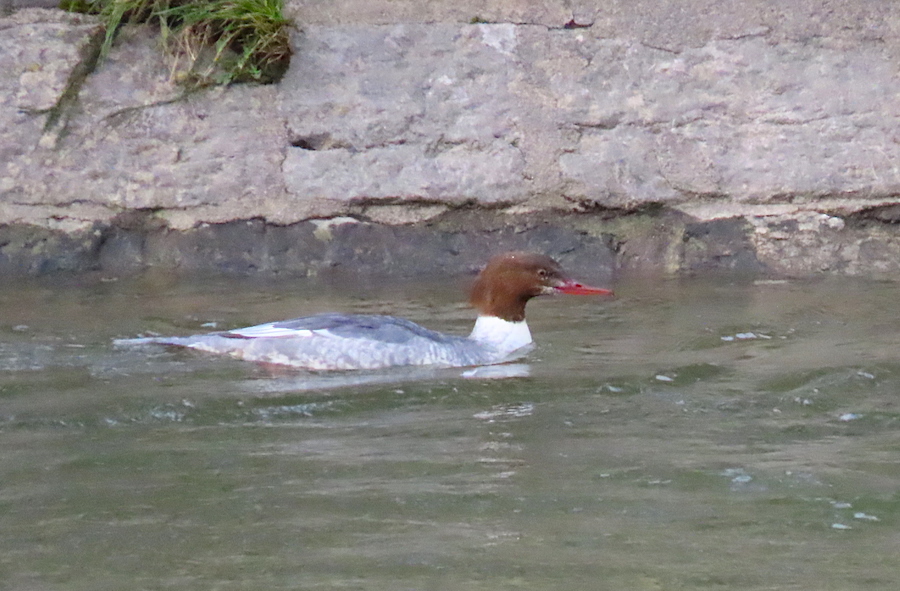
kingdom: Animalia
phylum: Chordata
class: Aves
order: Anseriformes
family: Anatidae
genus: Mergus
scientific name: Mergus merganser
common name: Common merganser
